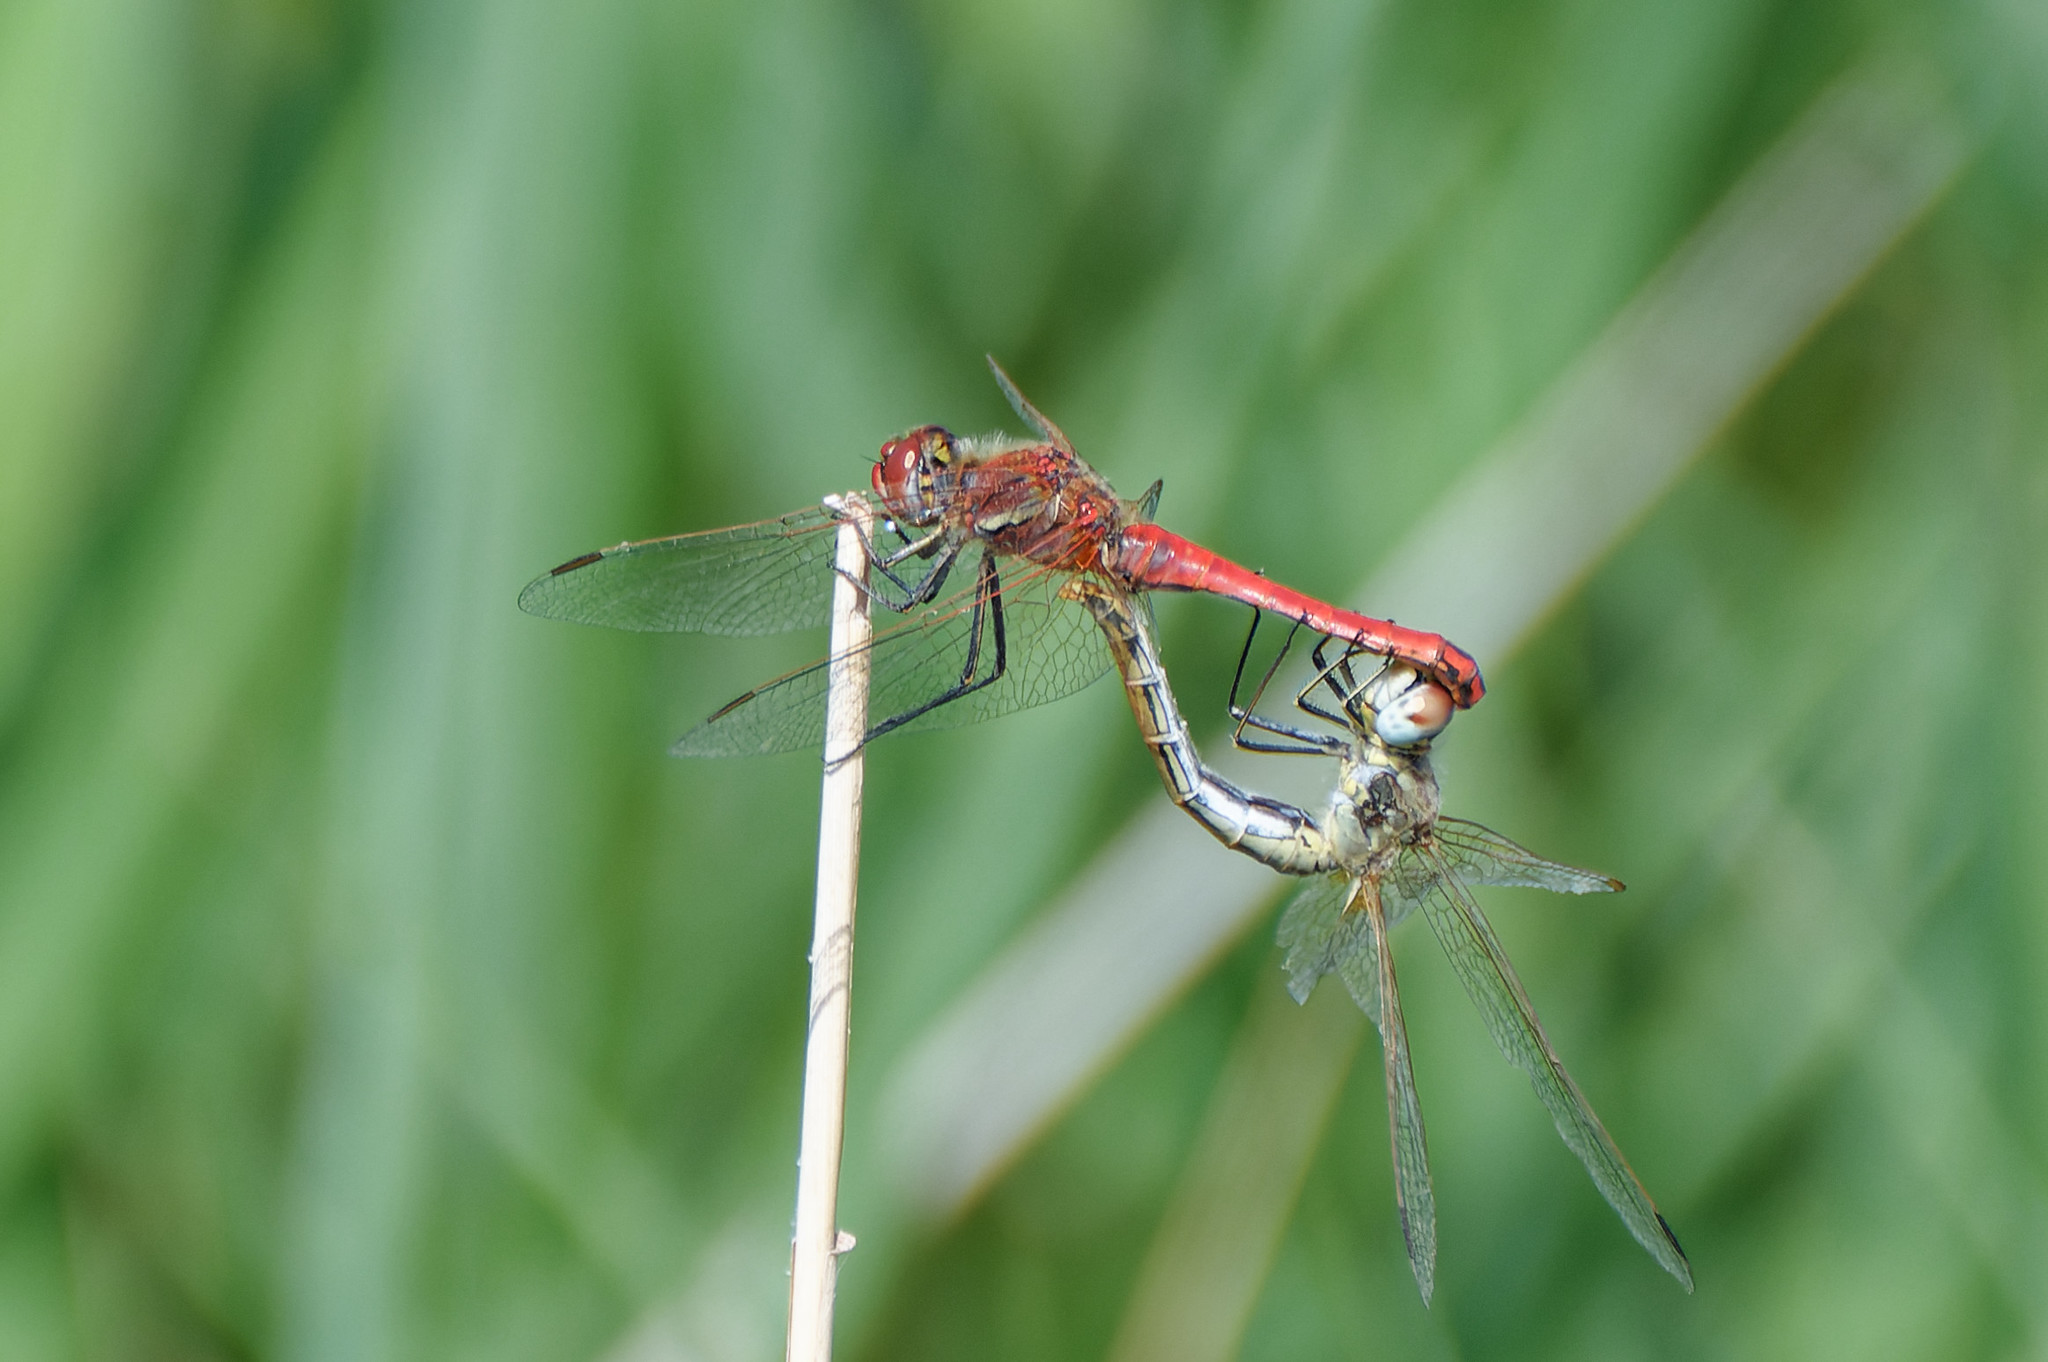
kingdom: Animalia
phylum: Arthropoda
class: Insecta
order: Odonata
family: Libellulidae
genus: Sympetrum
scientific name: Sympetrum fonscolombii
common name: Red-veined darter
